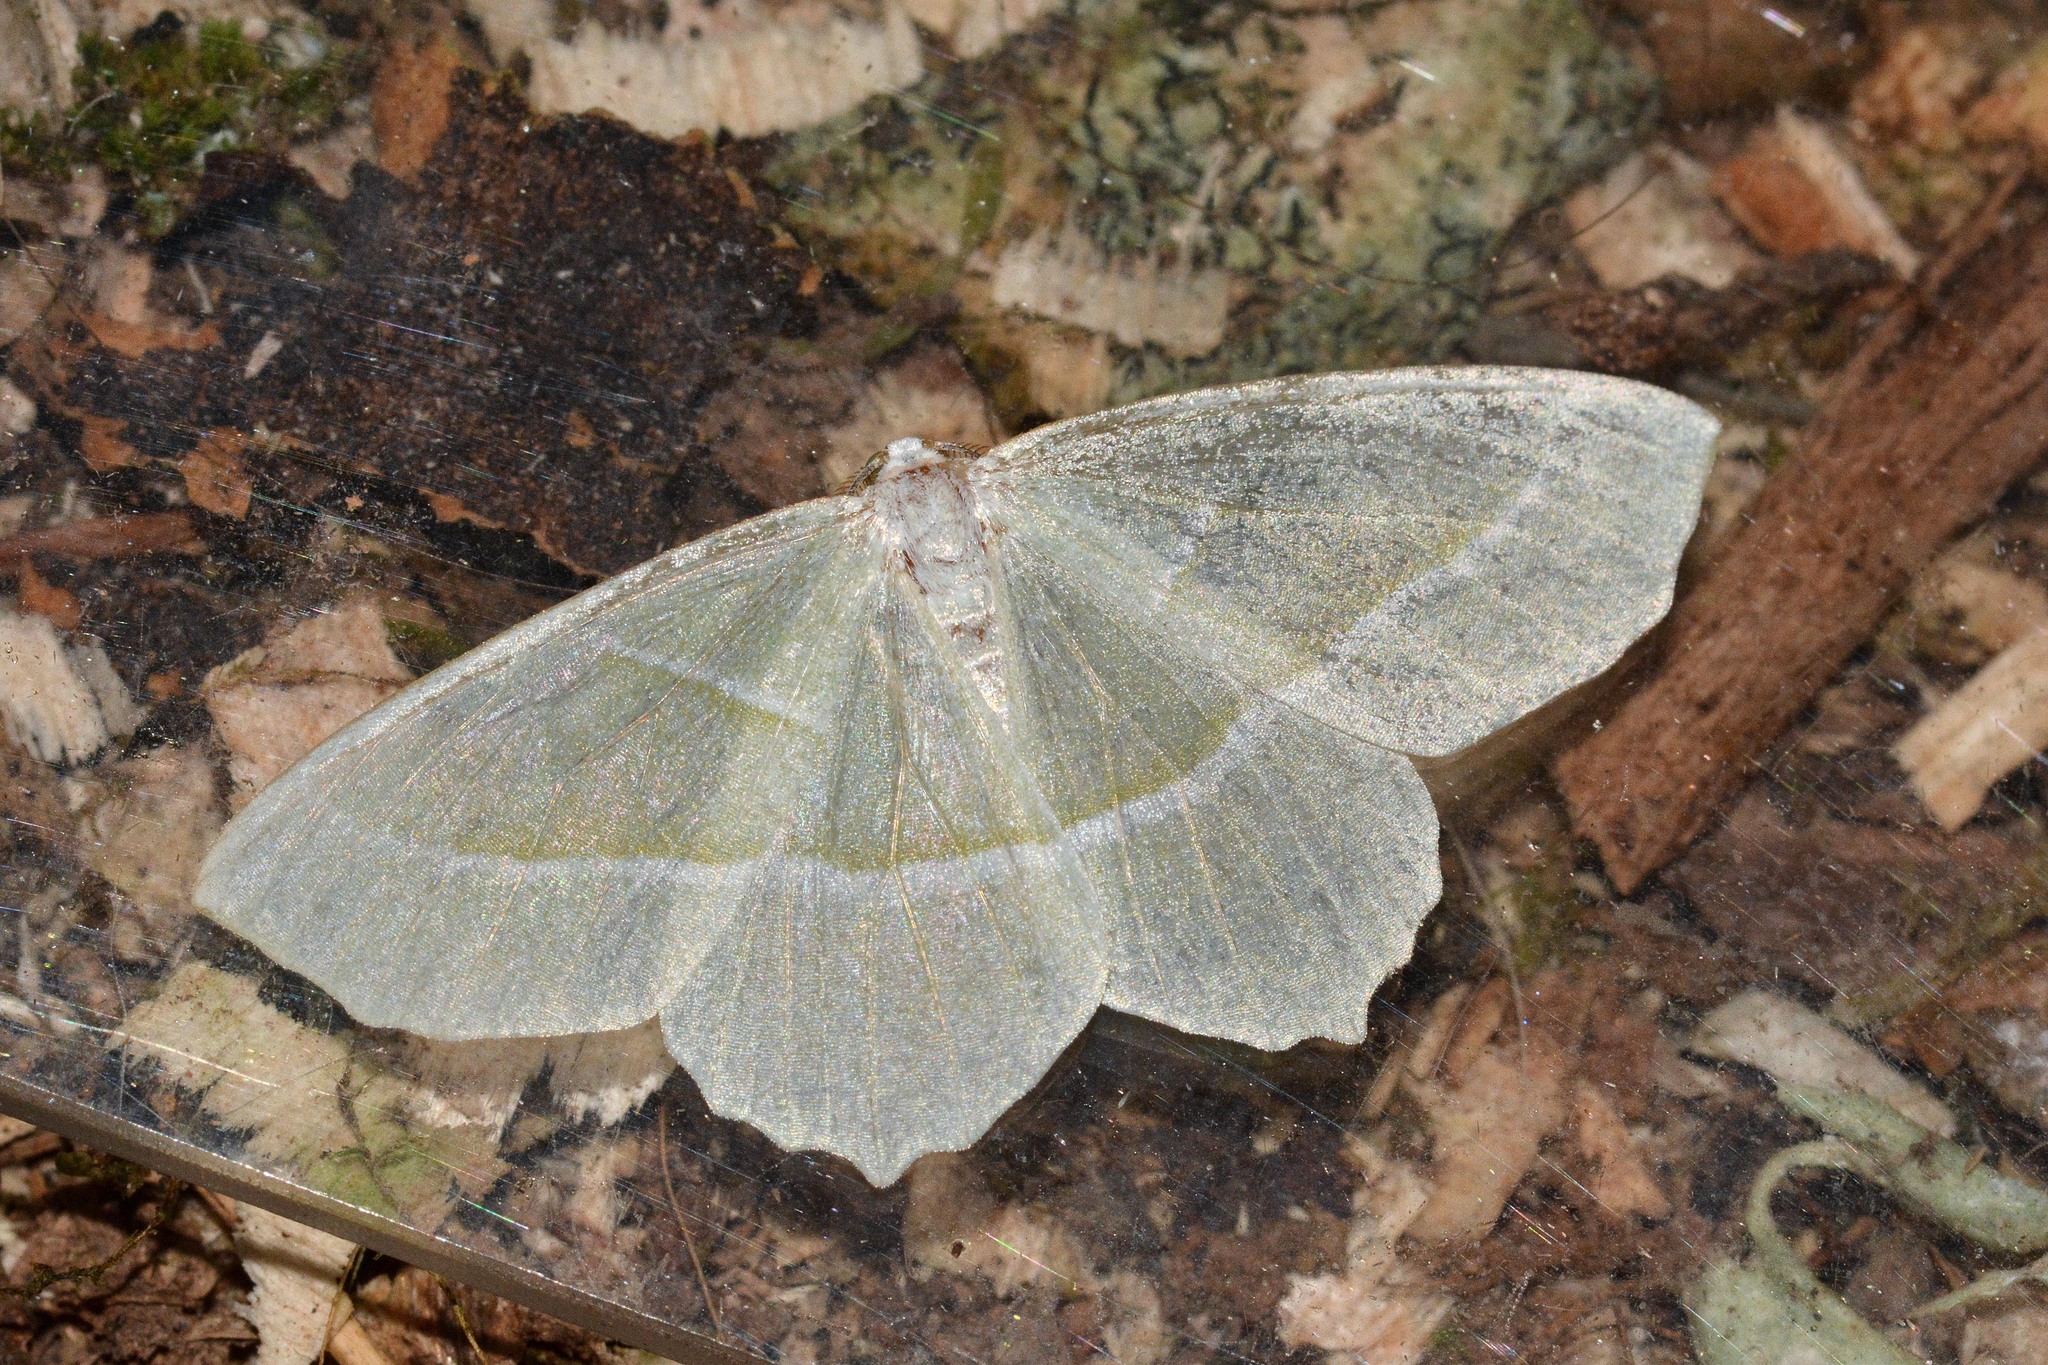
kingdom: Animalia
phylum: Arthropoda
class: Insecta
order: Lepidoptera
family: Geometridae
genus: Campaea
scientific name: Campaea margaritaria
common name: Light emerald
